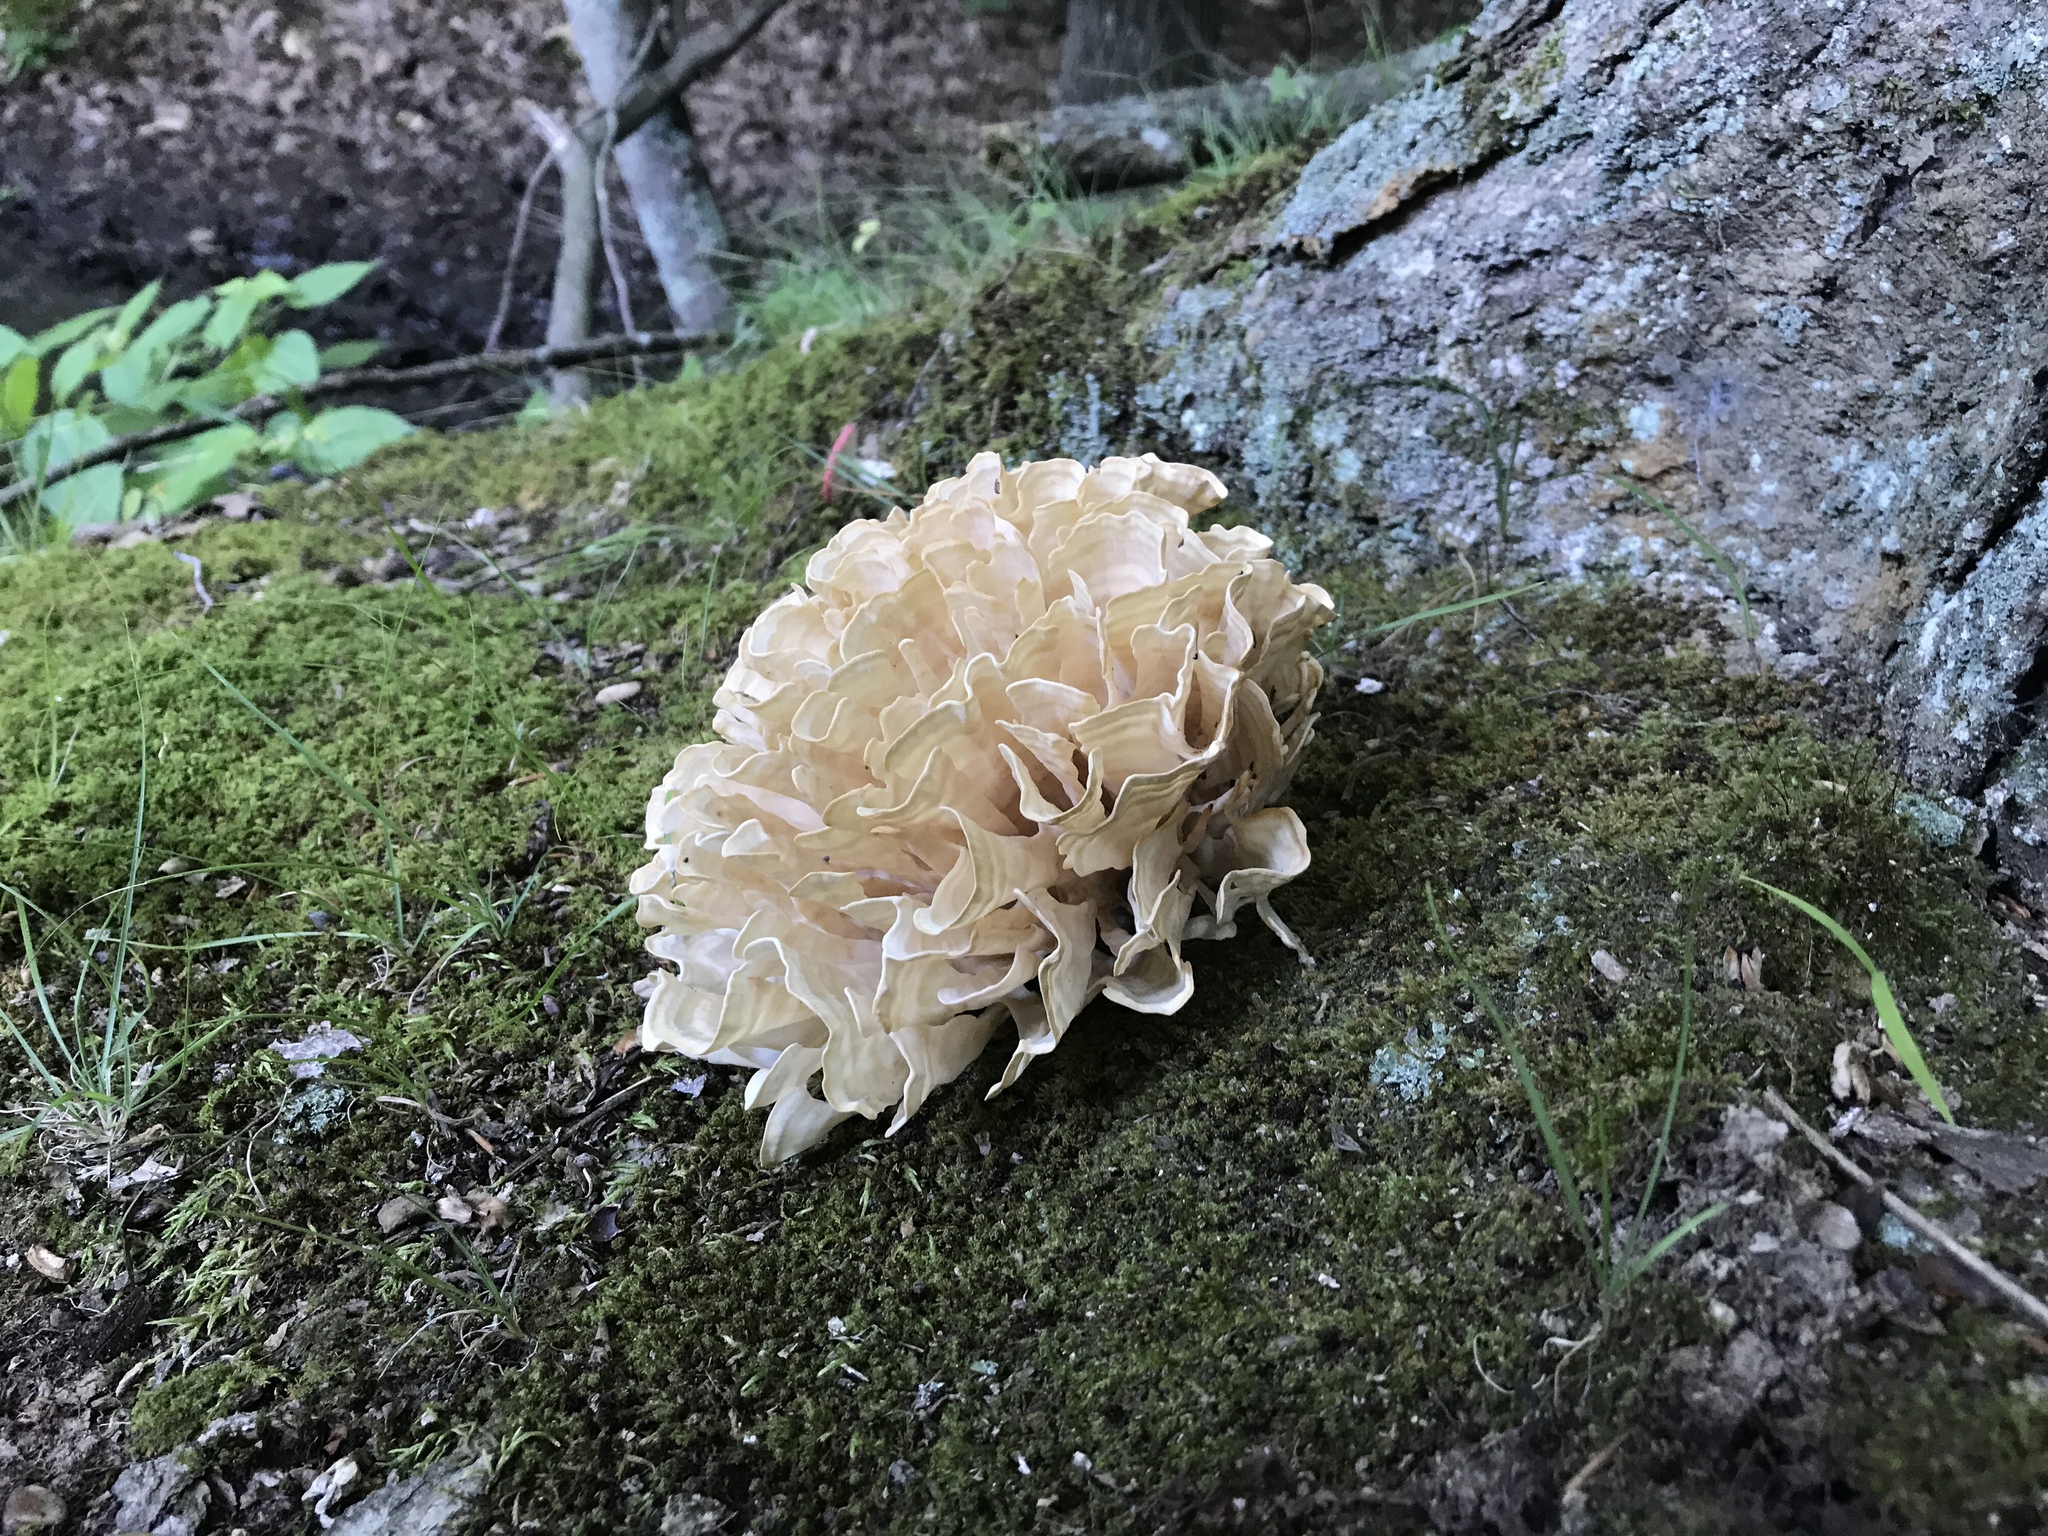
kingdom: Fungi
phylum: Basidiomycota
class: Agaricomycetes
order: Polyporales
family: Sparassidaceae
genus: Sparassis
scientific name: Sparassis spathulata
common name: Eastern cauliflower mushroom
